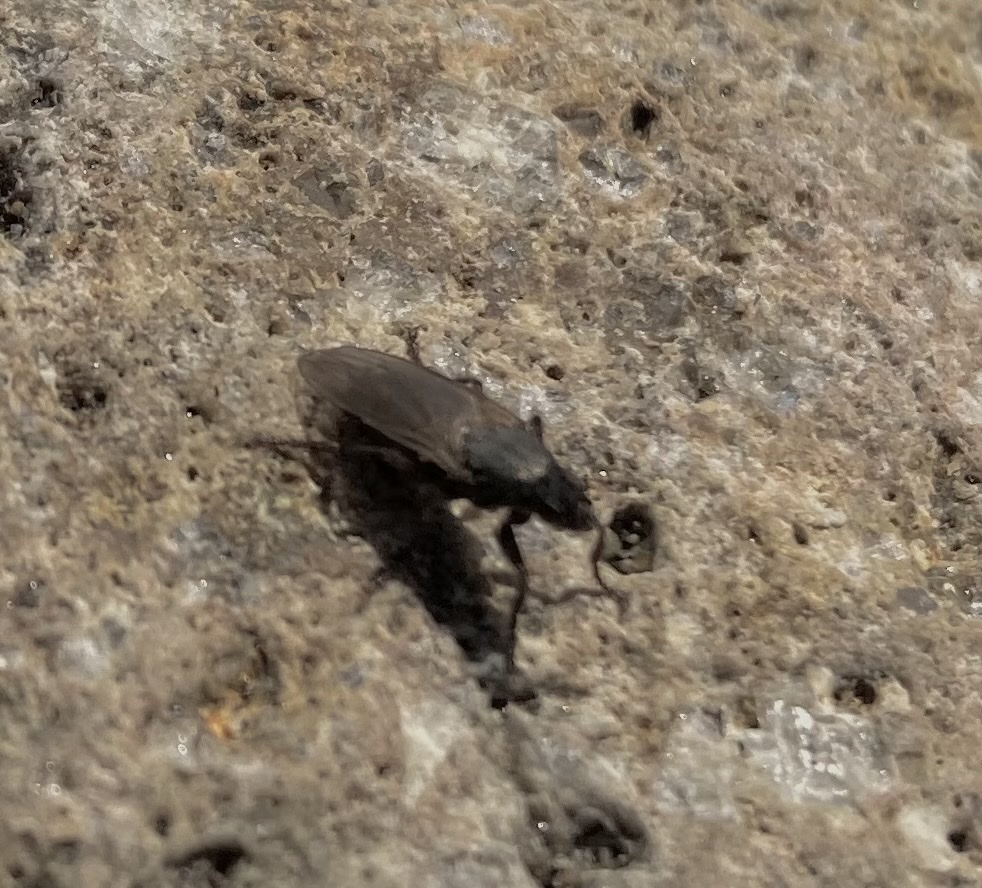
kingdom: Animalia
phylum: Arthropoda
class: Insecta
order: Diptera
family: Coelopidae
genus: Coelopa
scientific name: Coelopa vanduzeei
